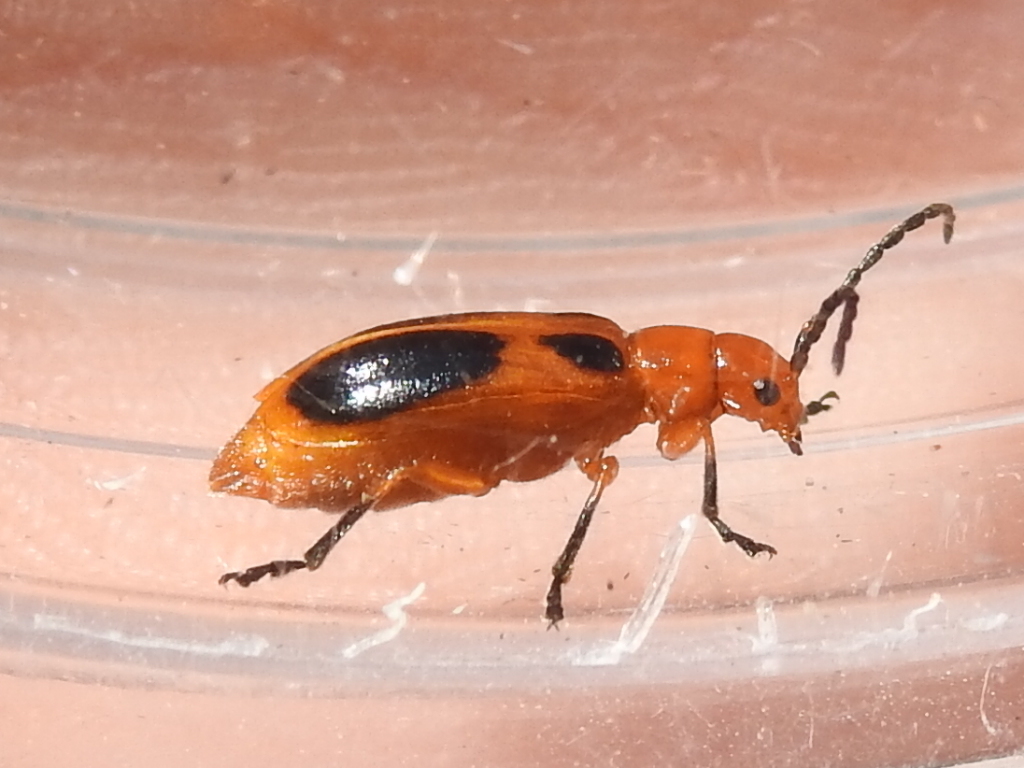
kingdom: Animalia
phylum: Arthropoda
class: Insecta
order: Coleoptera
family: Chrysomelidae
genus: Phyllobrotica
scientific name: Phyllobrotica sororia
